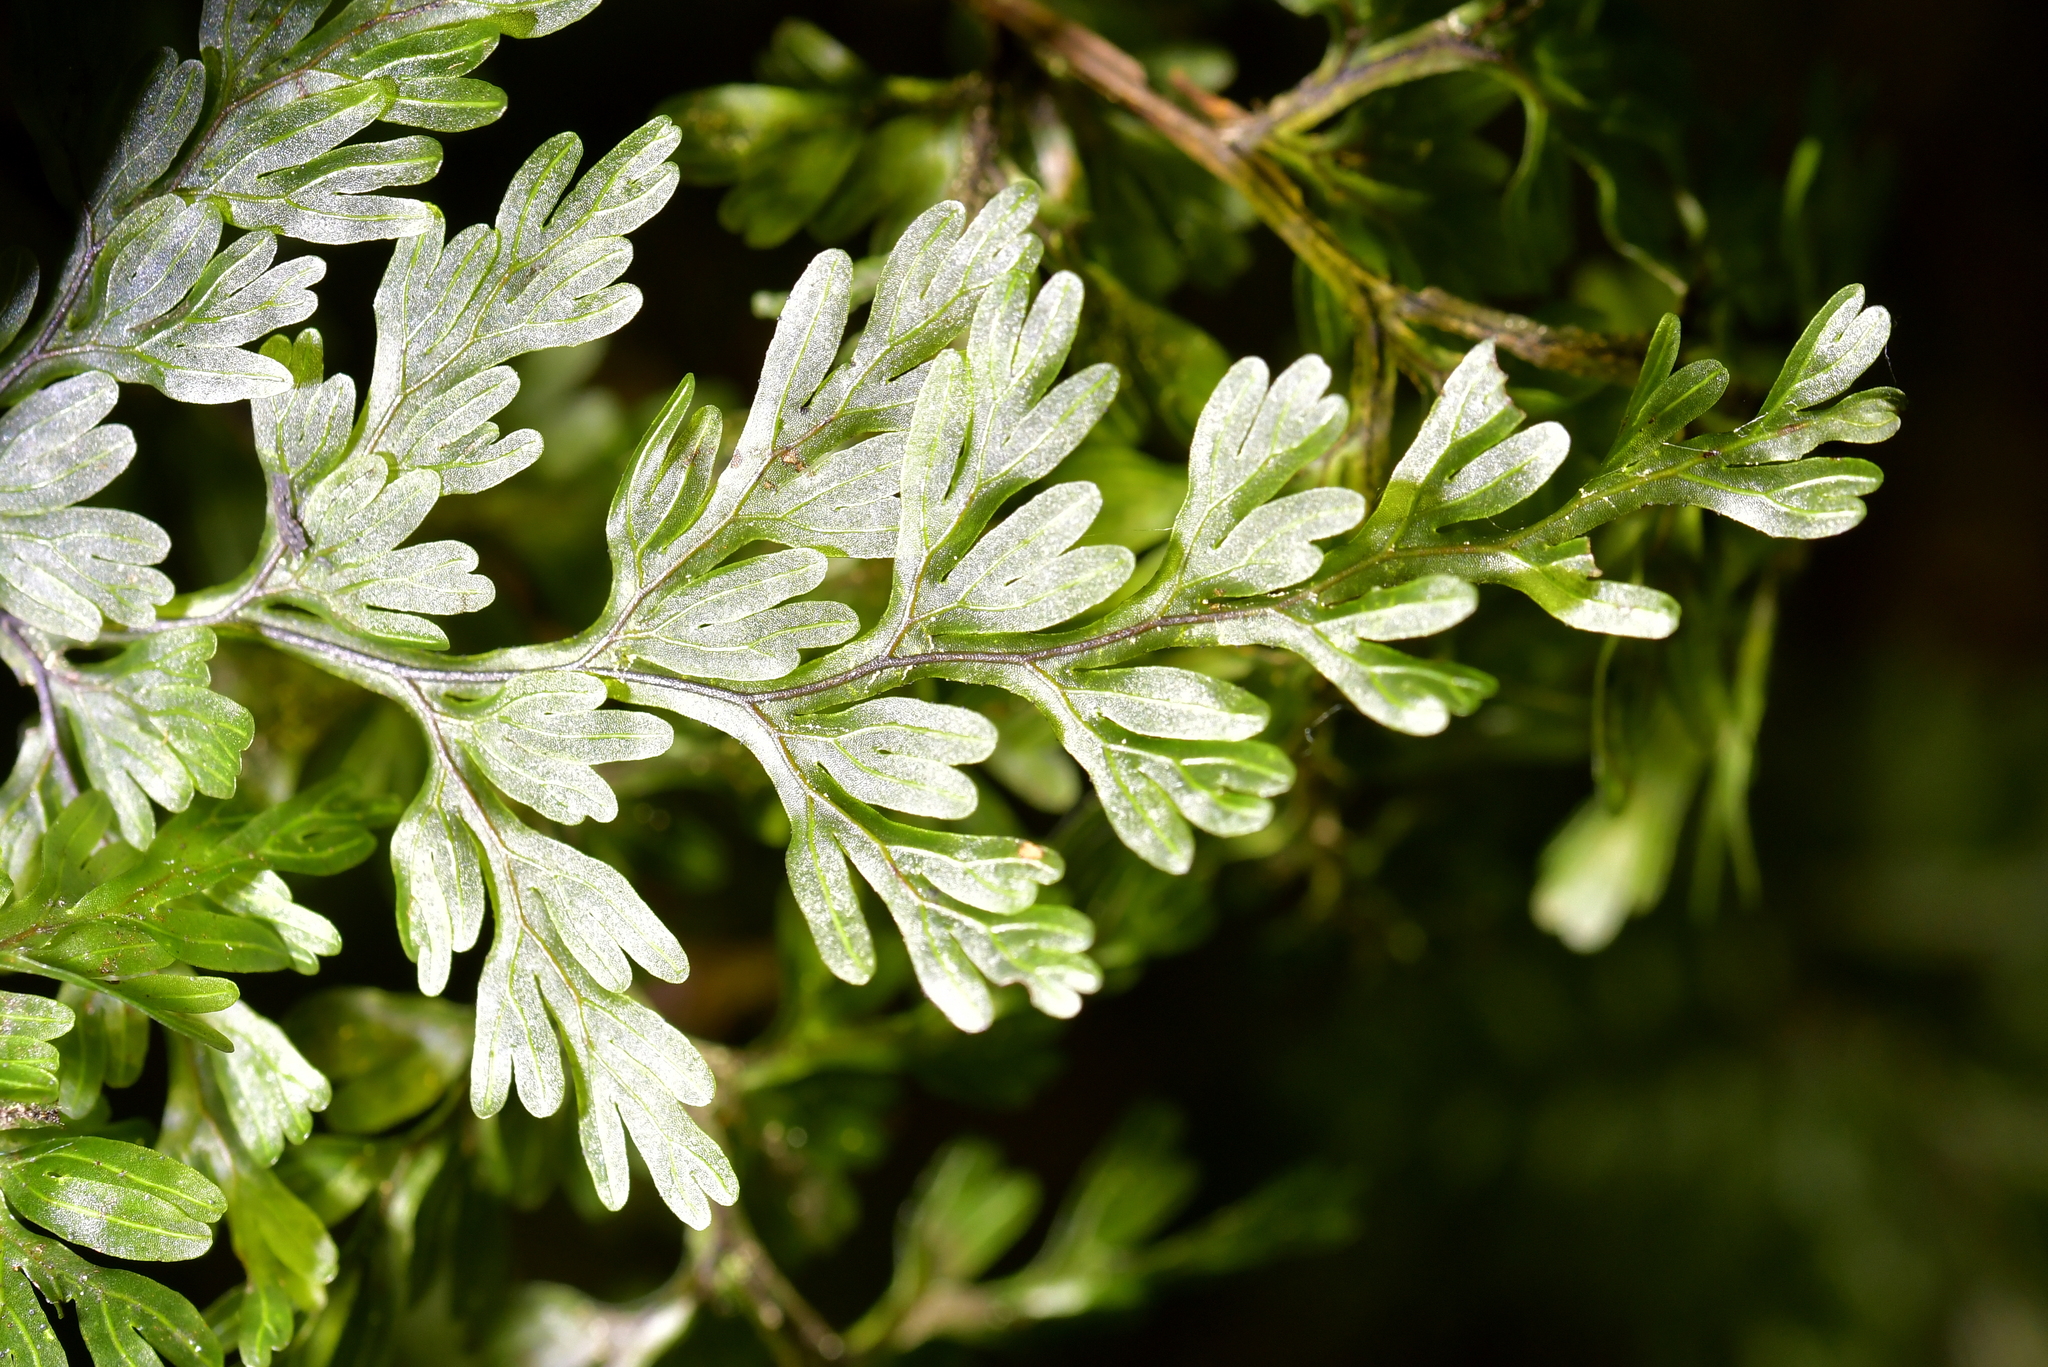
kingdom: Plantae
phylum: Tracheophyta
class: Polypodiopsida
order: Hymenophyllales
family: Hymenophyllaceae
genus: Hymenophyllum
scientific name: Hymenophyllum sanguinolentum
